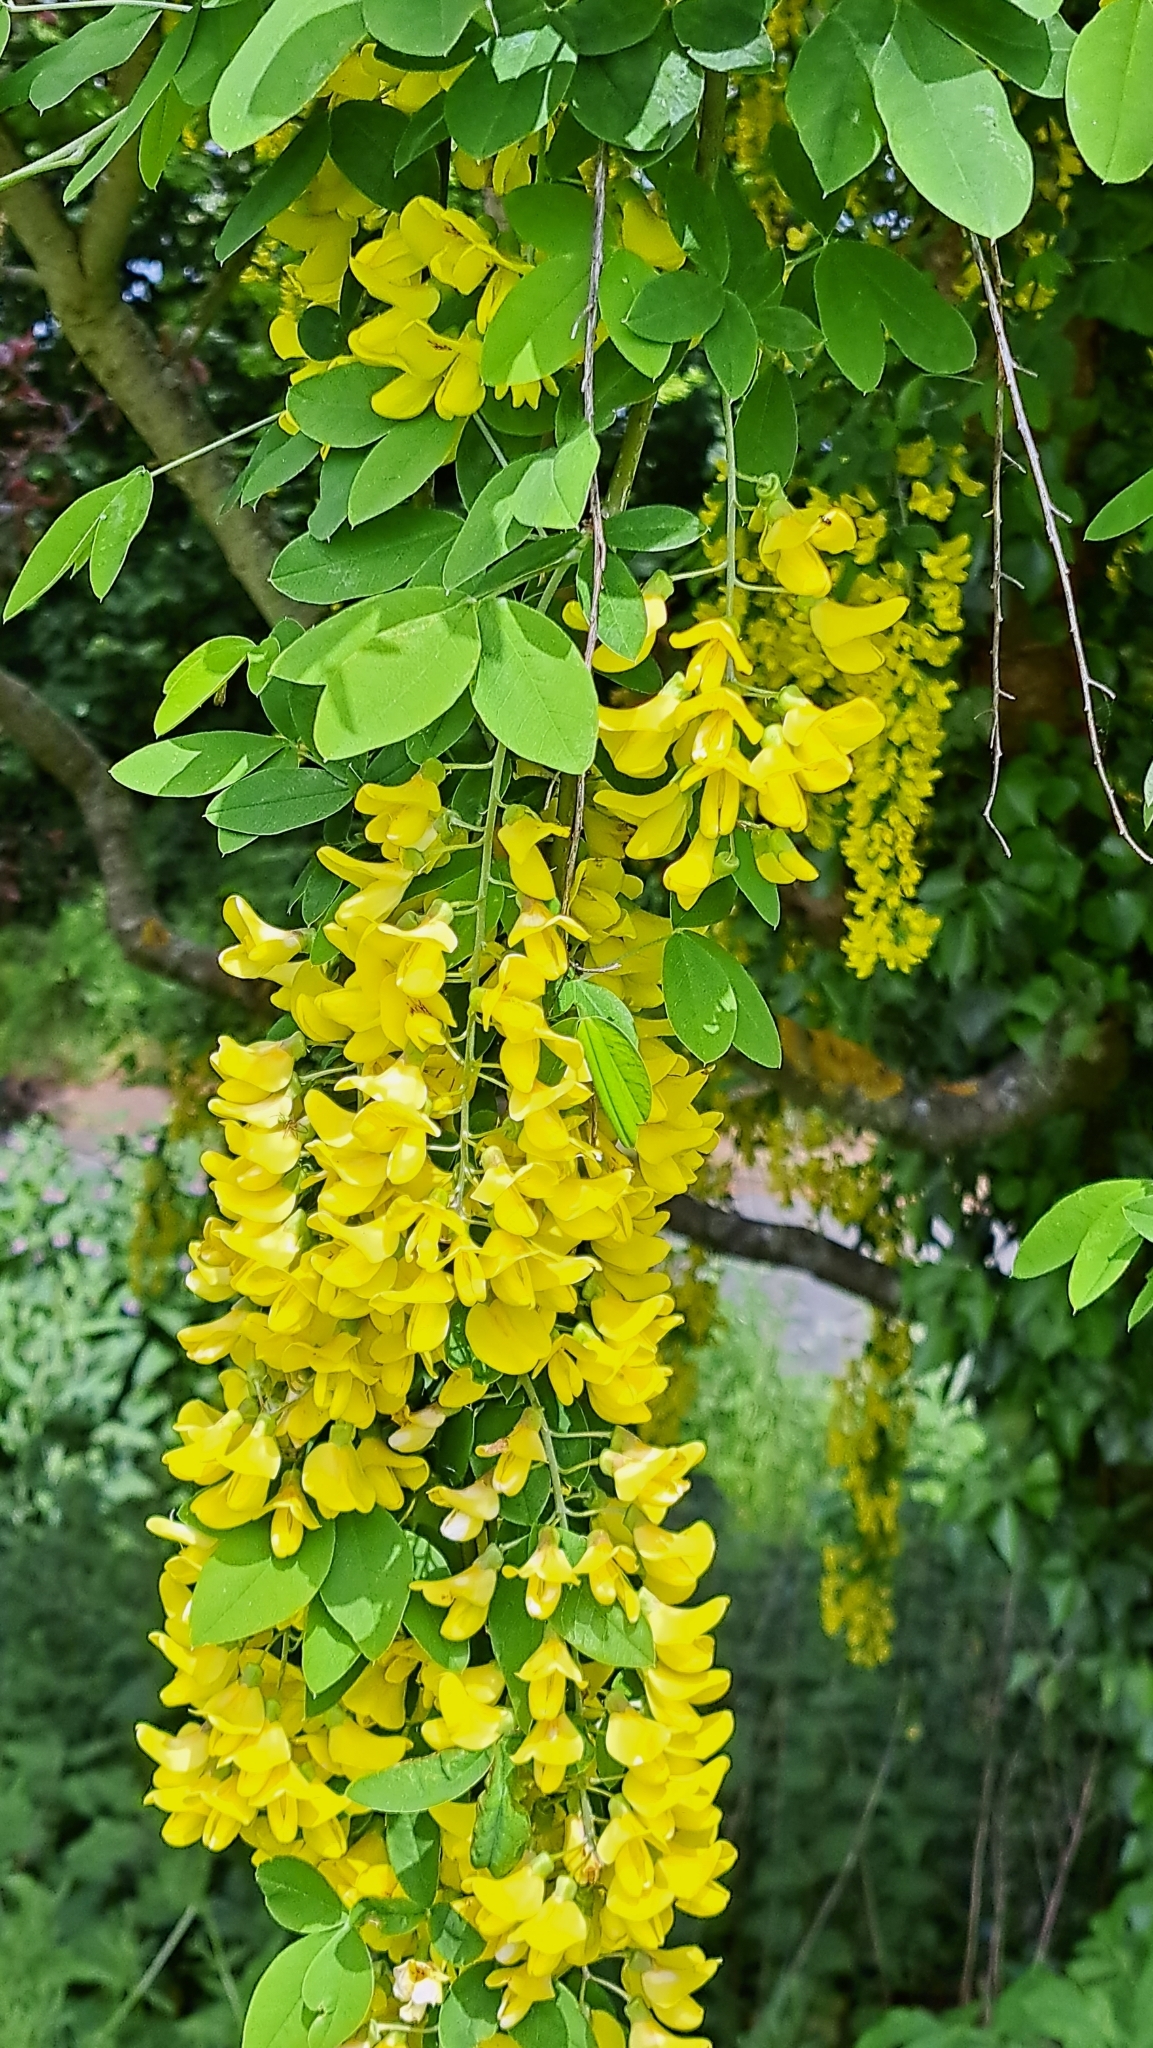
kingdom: Plantae
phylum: Tracheophyta
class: Magnoliopsida
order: Fabales
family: Fabaceae
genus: Laburnum
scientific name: Laburnum anagyroides
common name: Laburnum
